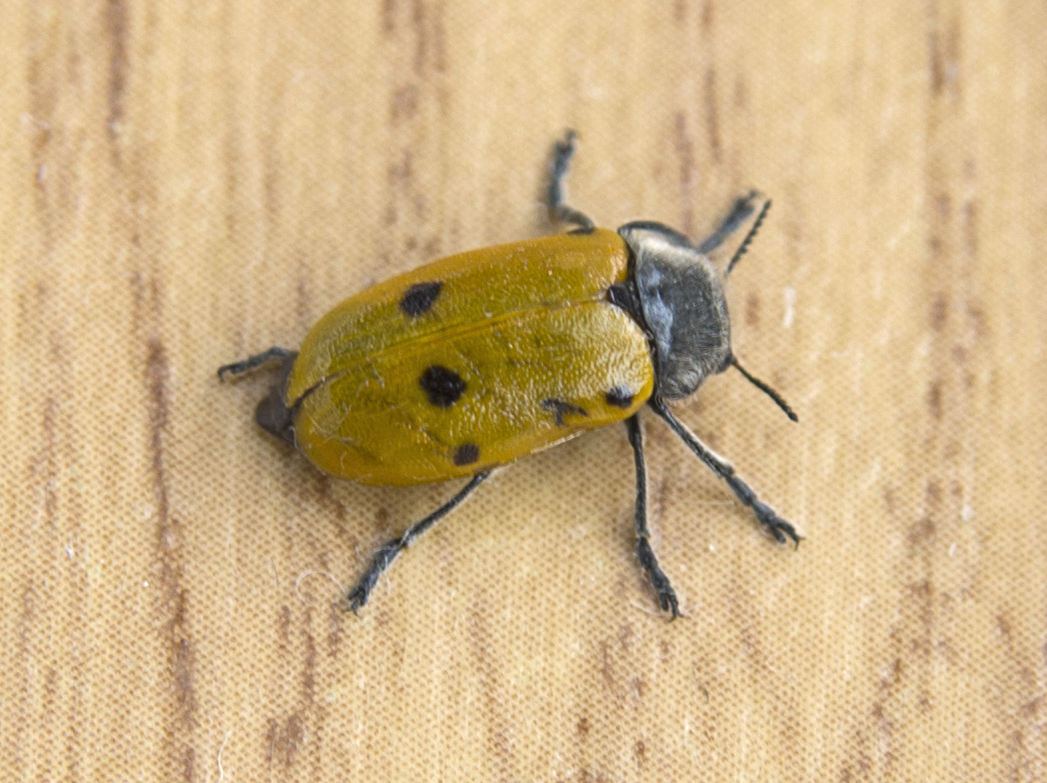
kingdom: Animalia
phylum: Arthropoda
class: Insecta
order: Coleoptera
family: Chrysomelidae
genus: Lachnaia
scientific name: Lachnaia sexpunctata
